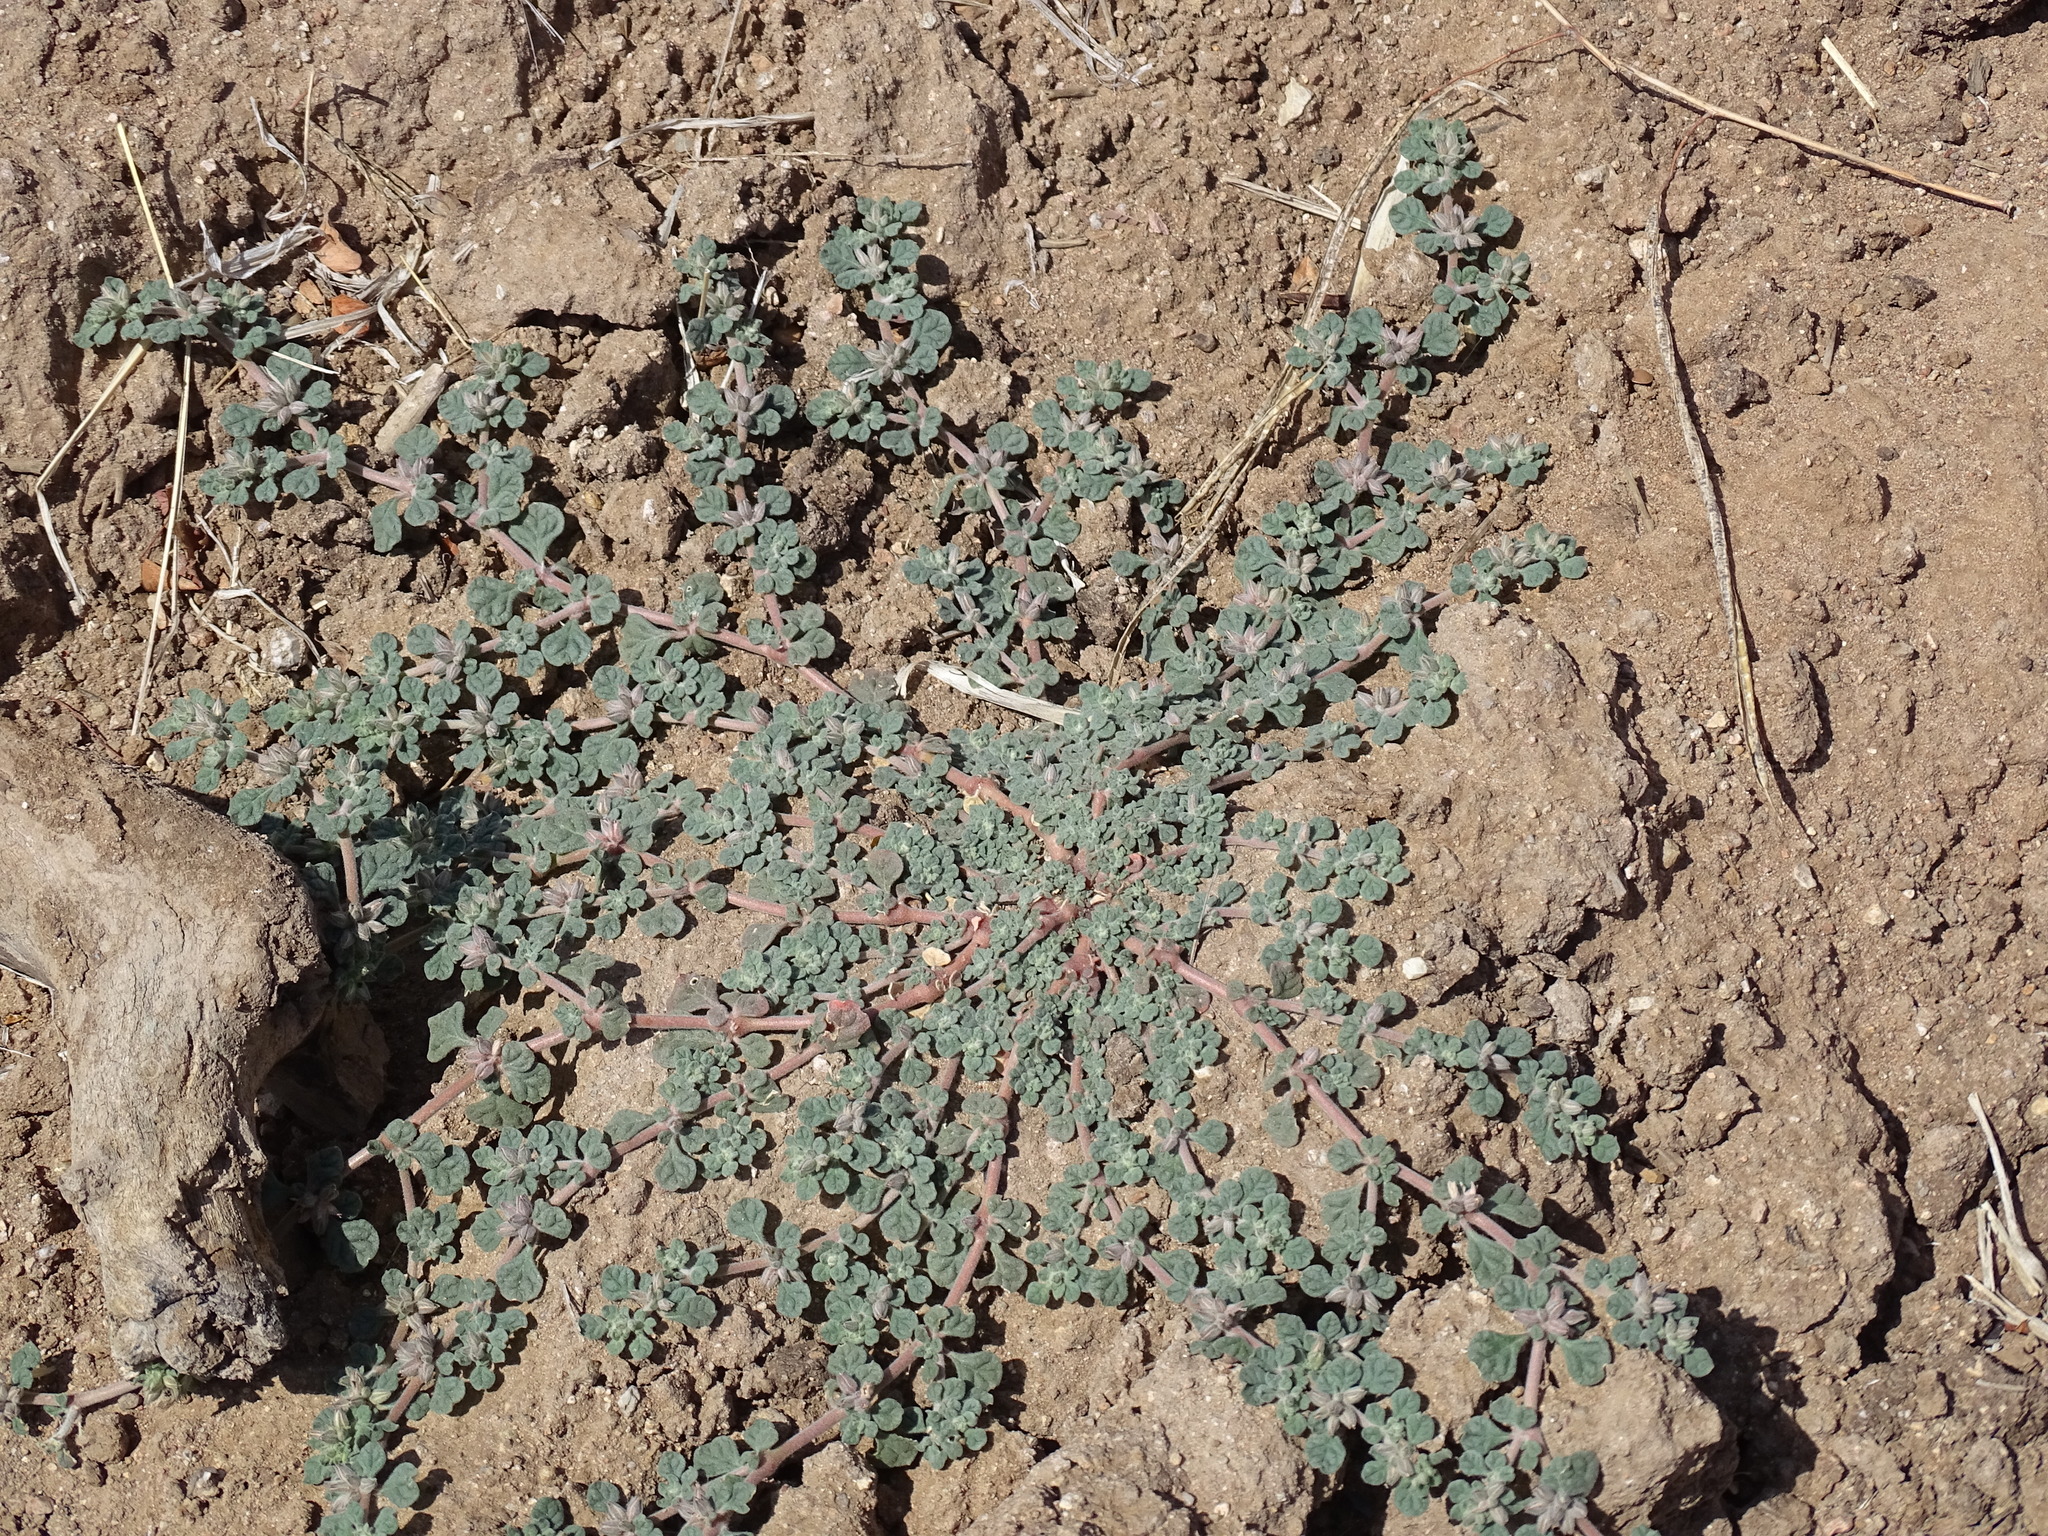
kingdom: Plantae
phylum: Tracheophyta
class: Magnoliopsida
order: Caryophyllales
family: Molluginaceae
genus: Glinus
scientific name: Glinus radiatus
